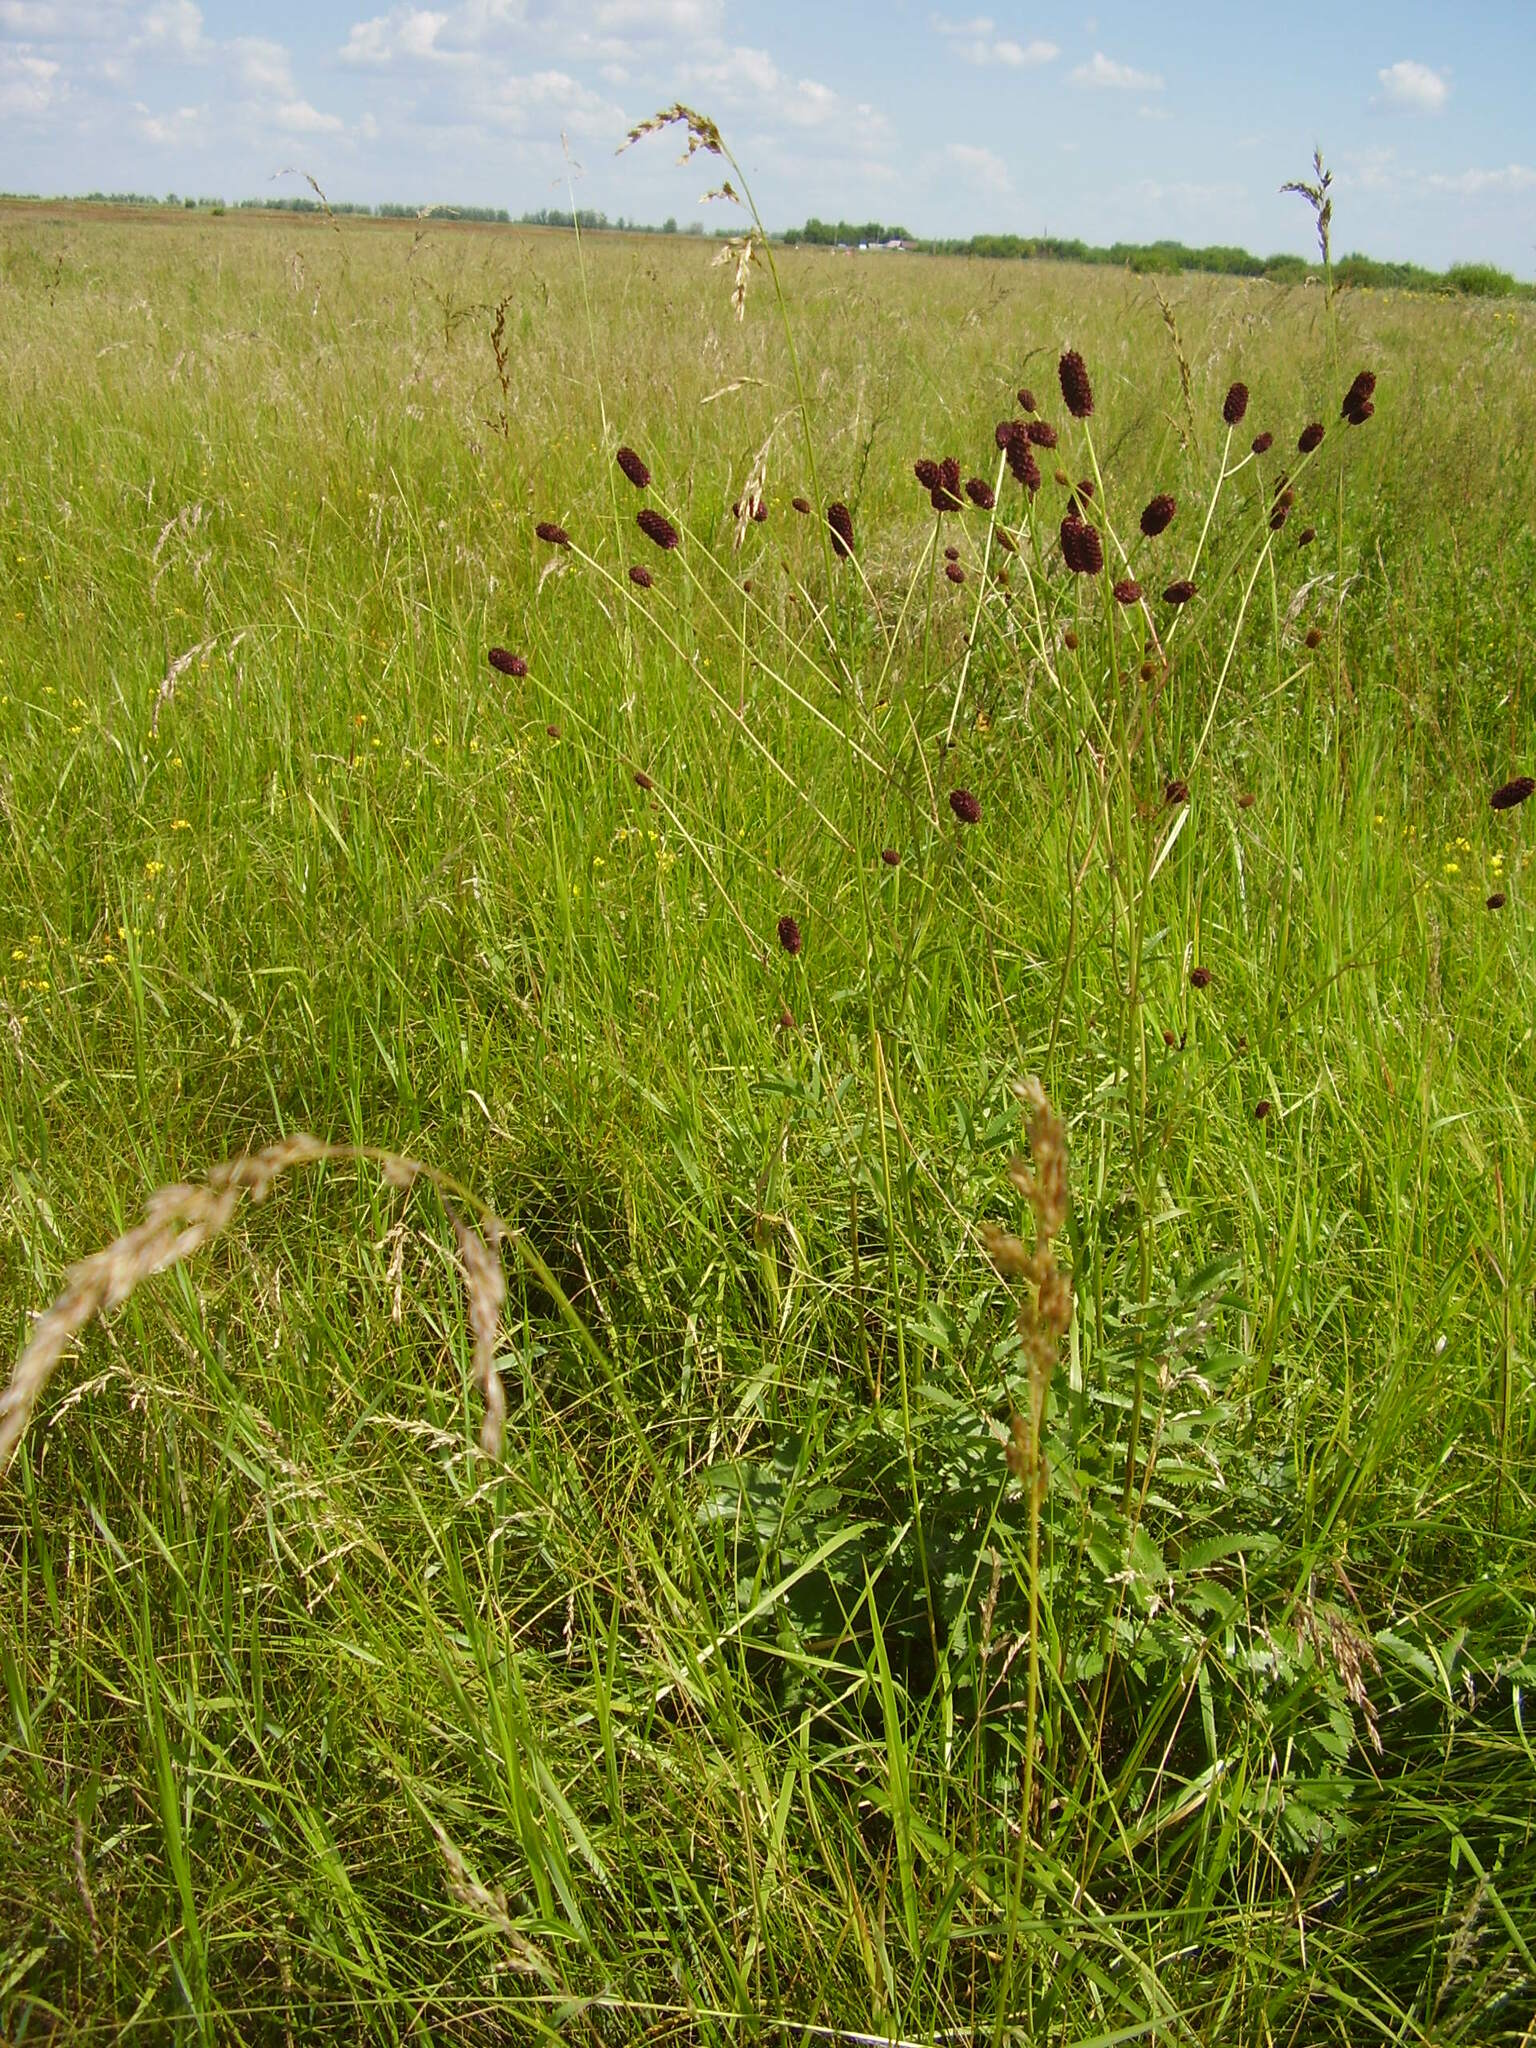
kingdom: Plantae
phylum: Tracheophyta
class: Magnoliopsida
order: Rosales
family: Rosaceae
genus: Sanguisorba
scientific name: Sanguisorba officinalis
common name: Great burnet
